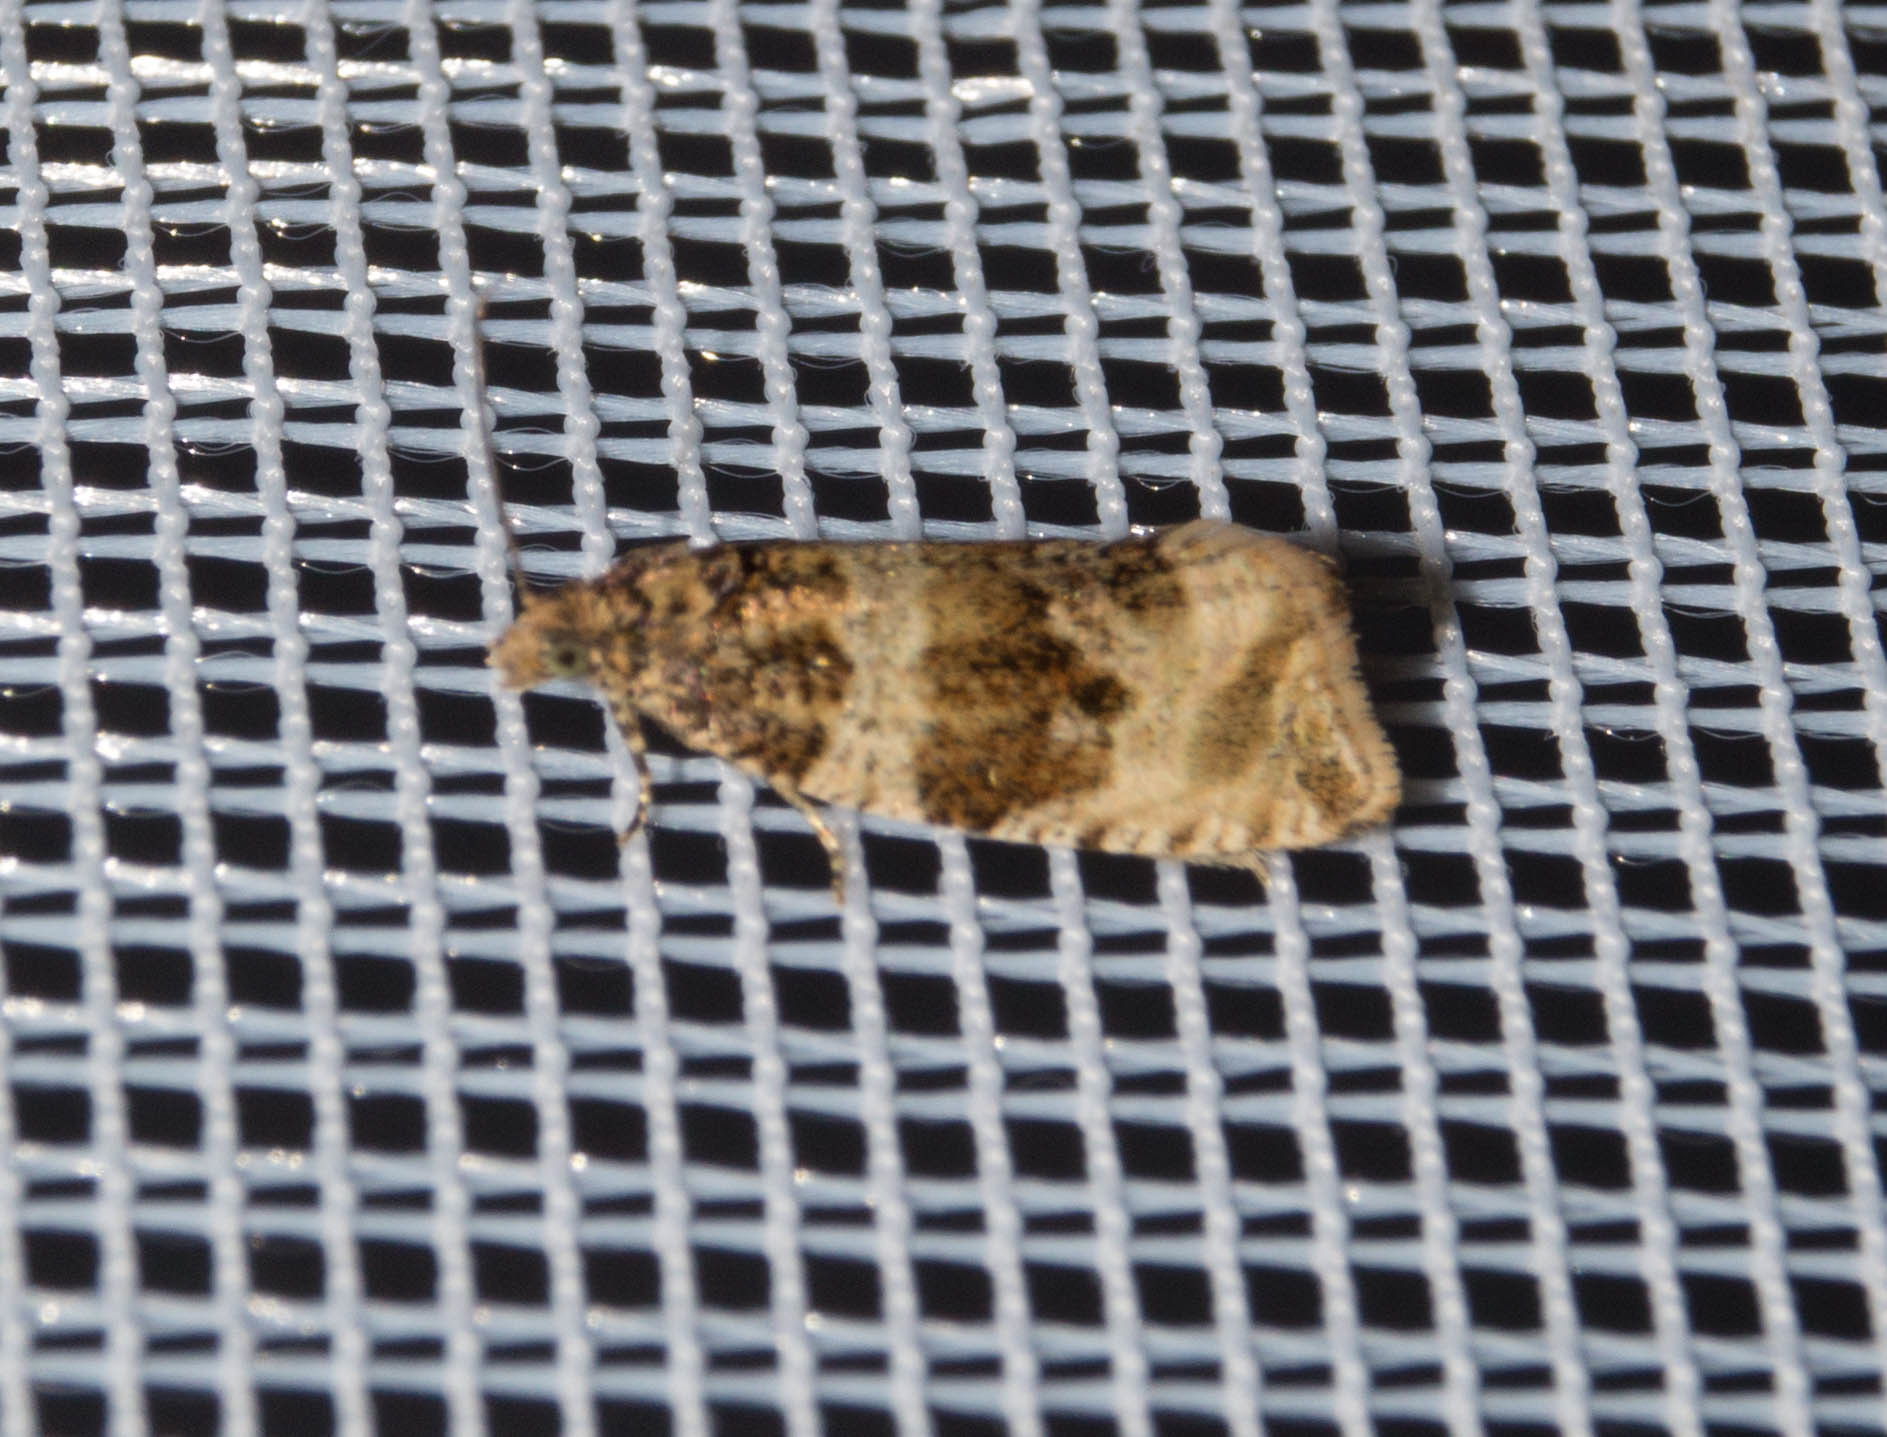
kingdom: Animalia
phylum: Arthropoda
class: Insecta
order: Lepidoptera
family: Tortricidae
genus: Orthotaenia
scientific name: Orthotaenia undulana
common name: Woodland marble
